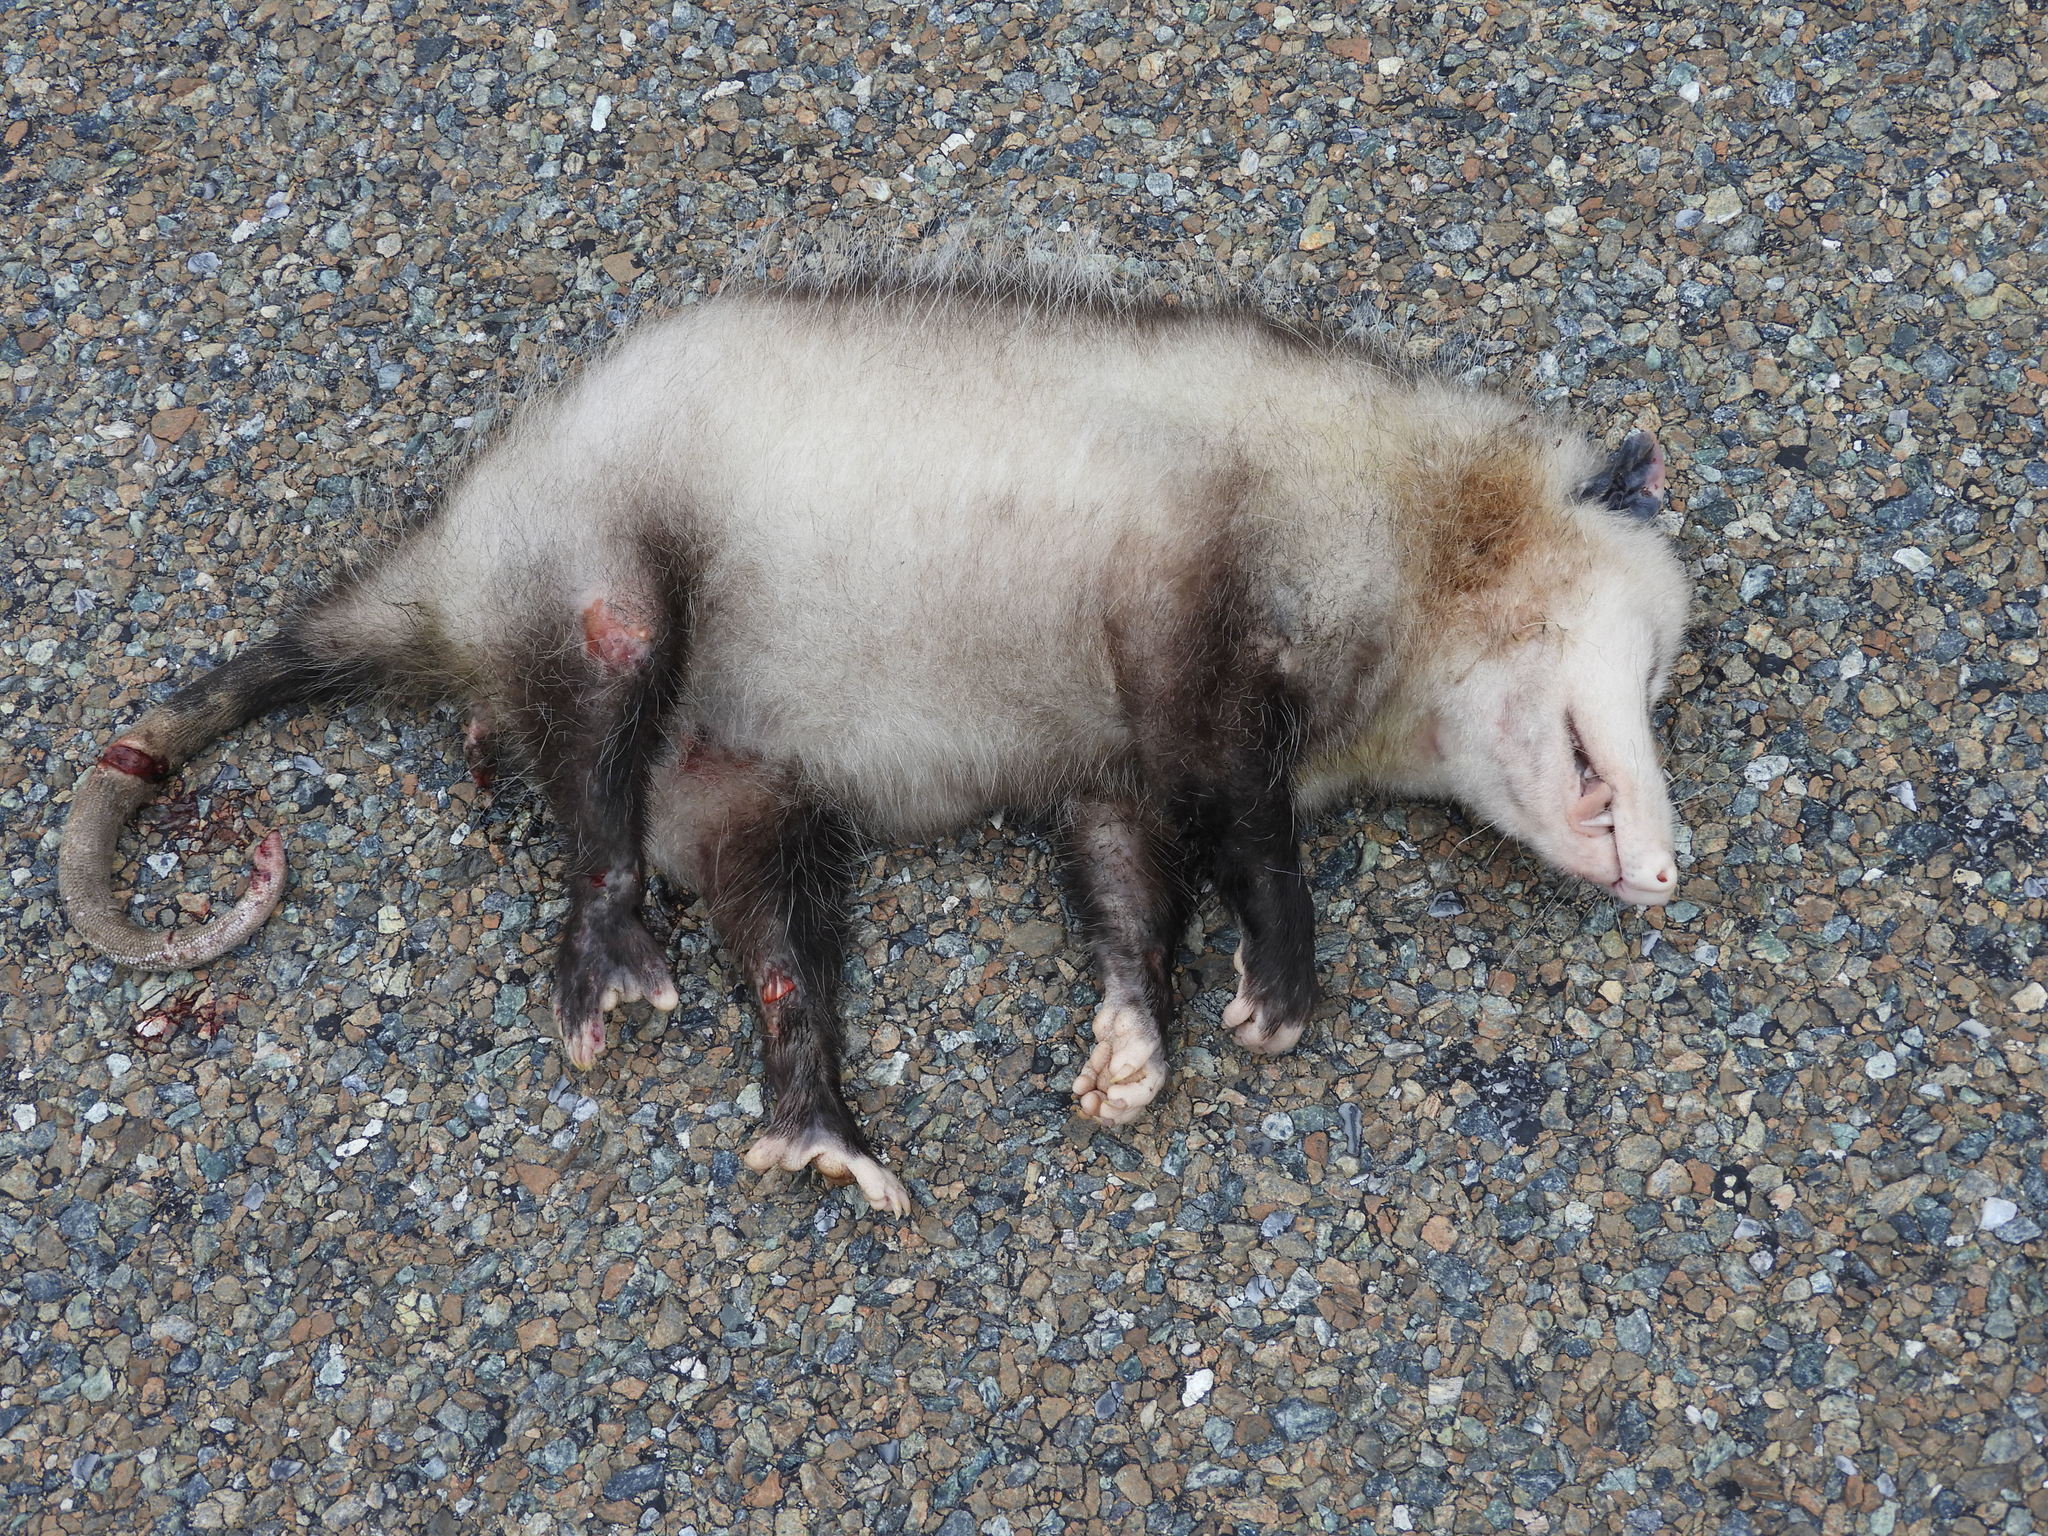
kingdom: Animalia
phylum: Chordata
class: Mammalia
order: Didelphimorphia
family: Didelphidae
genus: Didelphis
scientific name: Didelphis virginiana
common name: Virginia opossum
